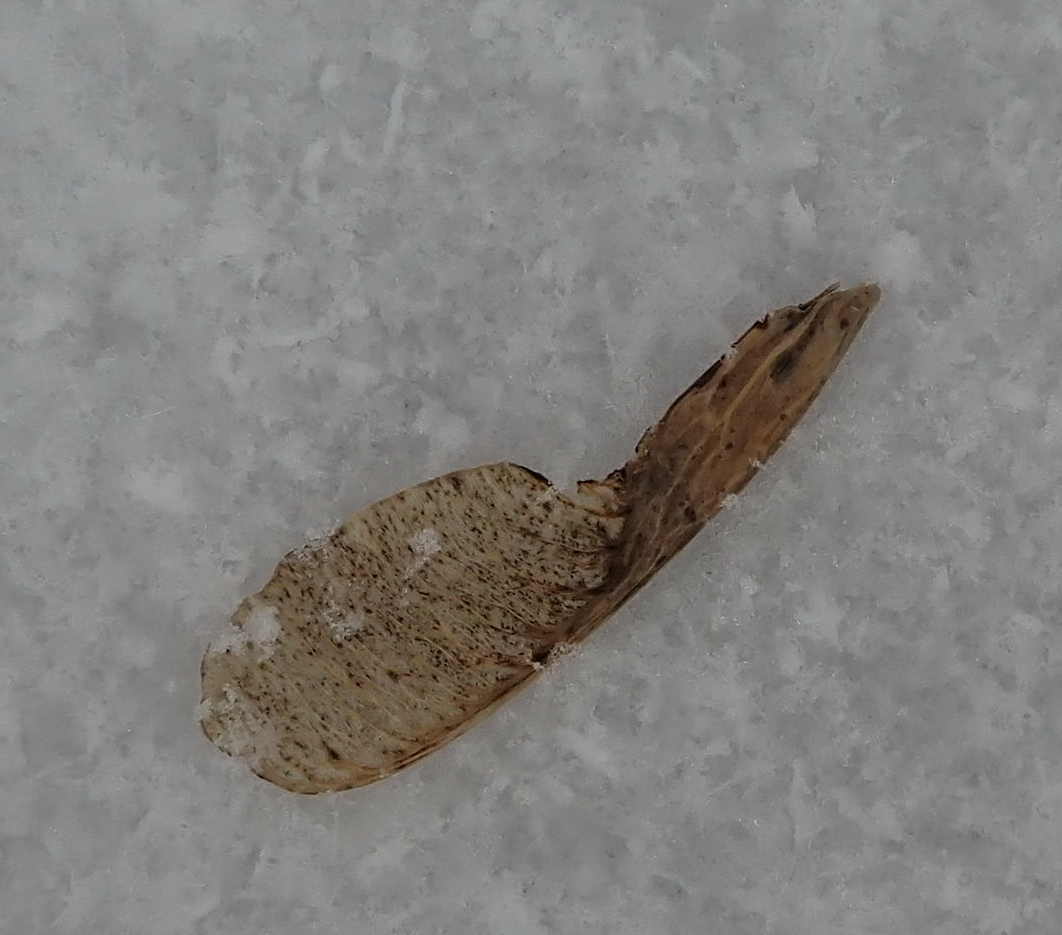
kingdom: Plantae
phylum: Tracheophyta
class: Magnoliopsida
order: Sapindales
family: Sapindaceae
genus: Acer
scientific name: Acer negundo
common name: Ashleaf maple
